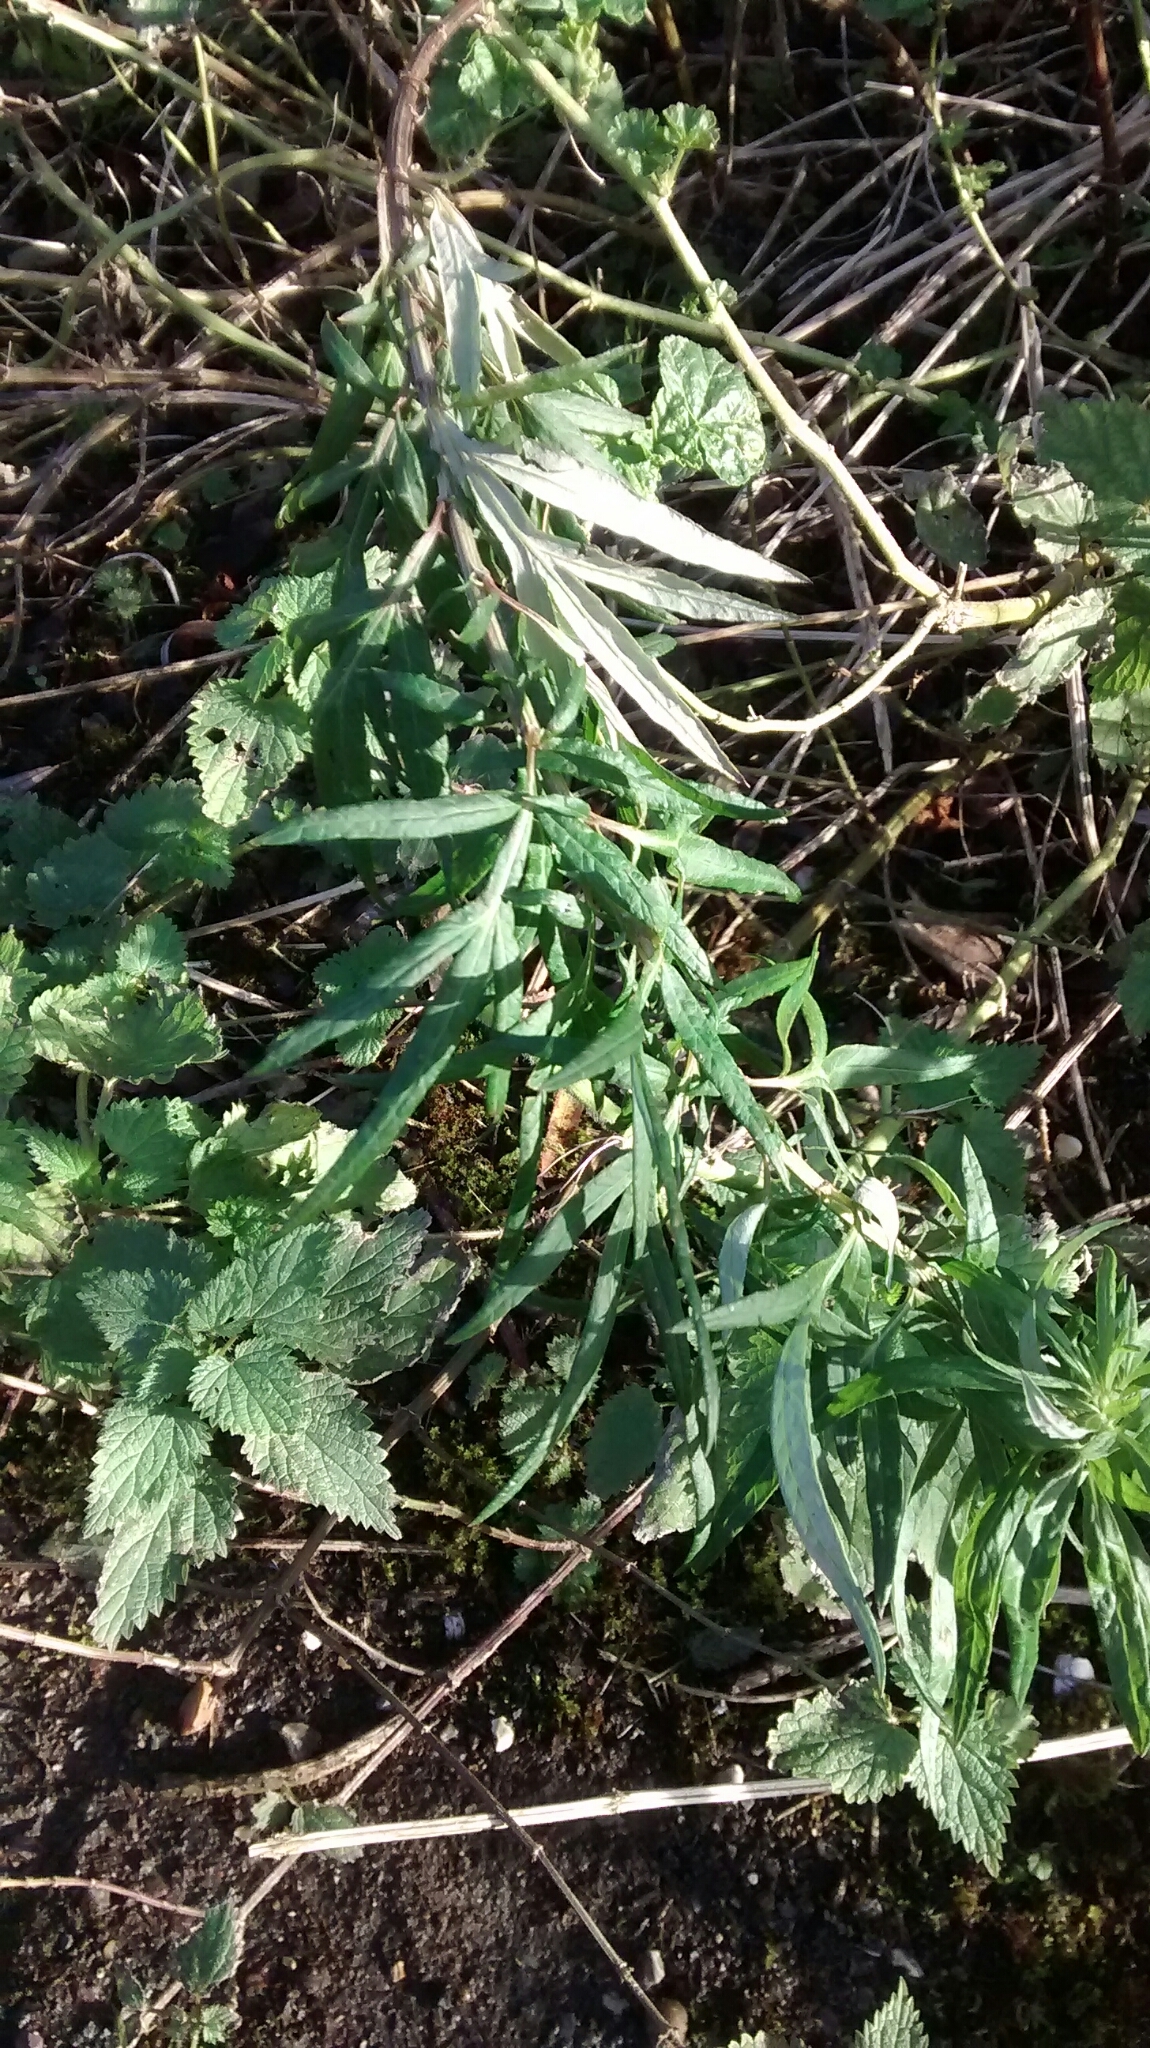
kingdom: Plantae
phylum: Tracheophyta
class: Magnoliopsida
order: Asterales
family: Asteraceae
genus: Artemisia
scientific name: Artemisia verlotiorum
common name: Chinese mugwort
